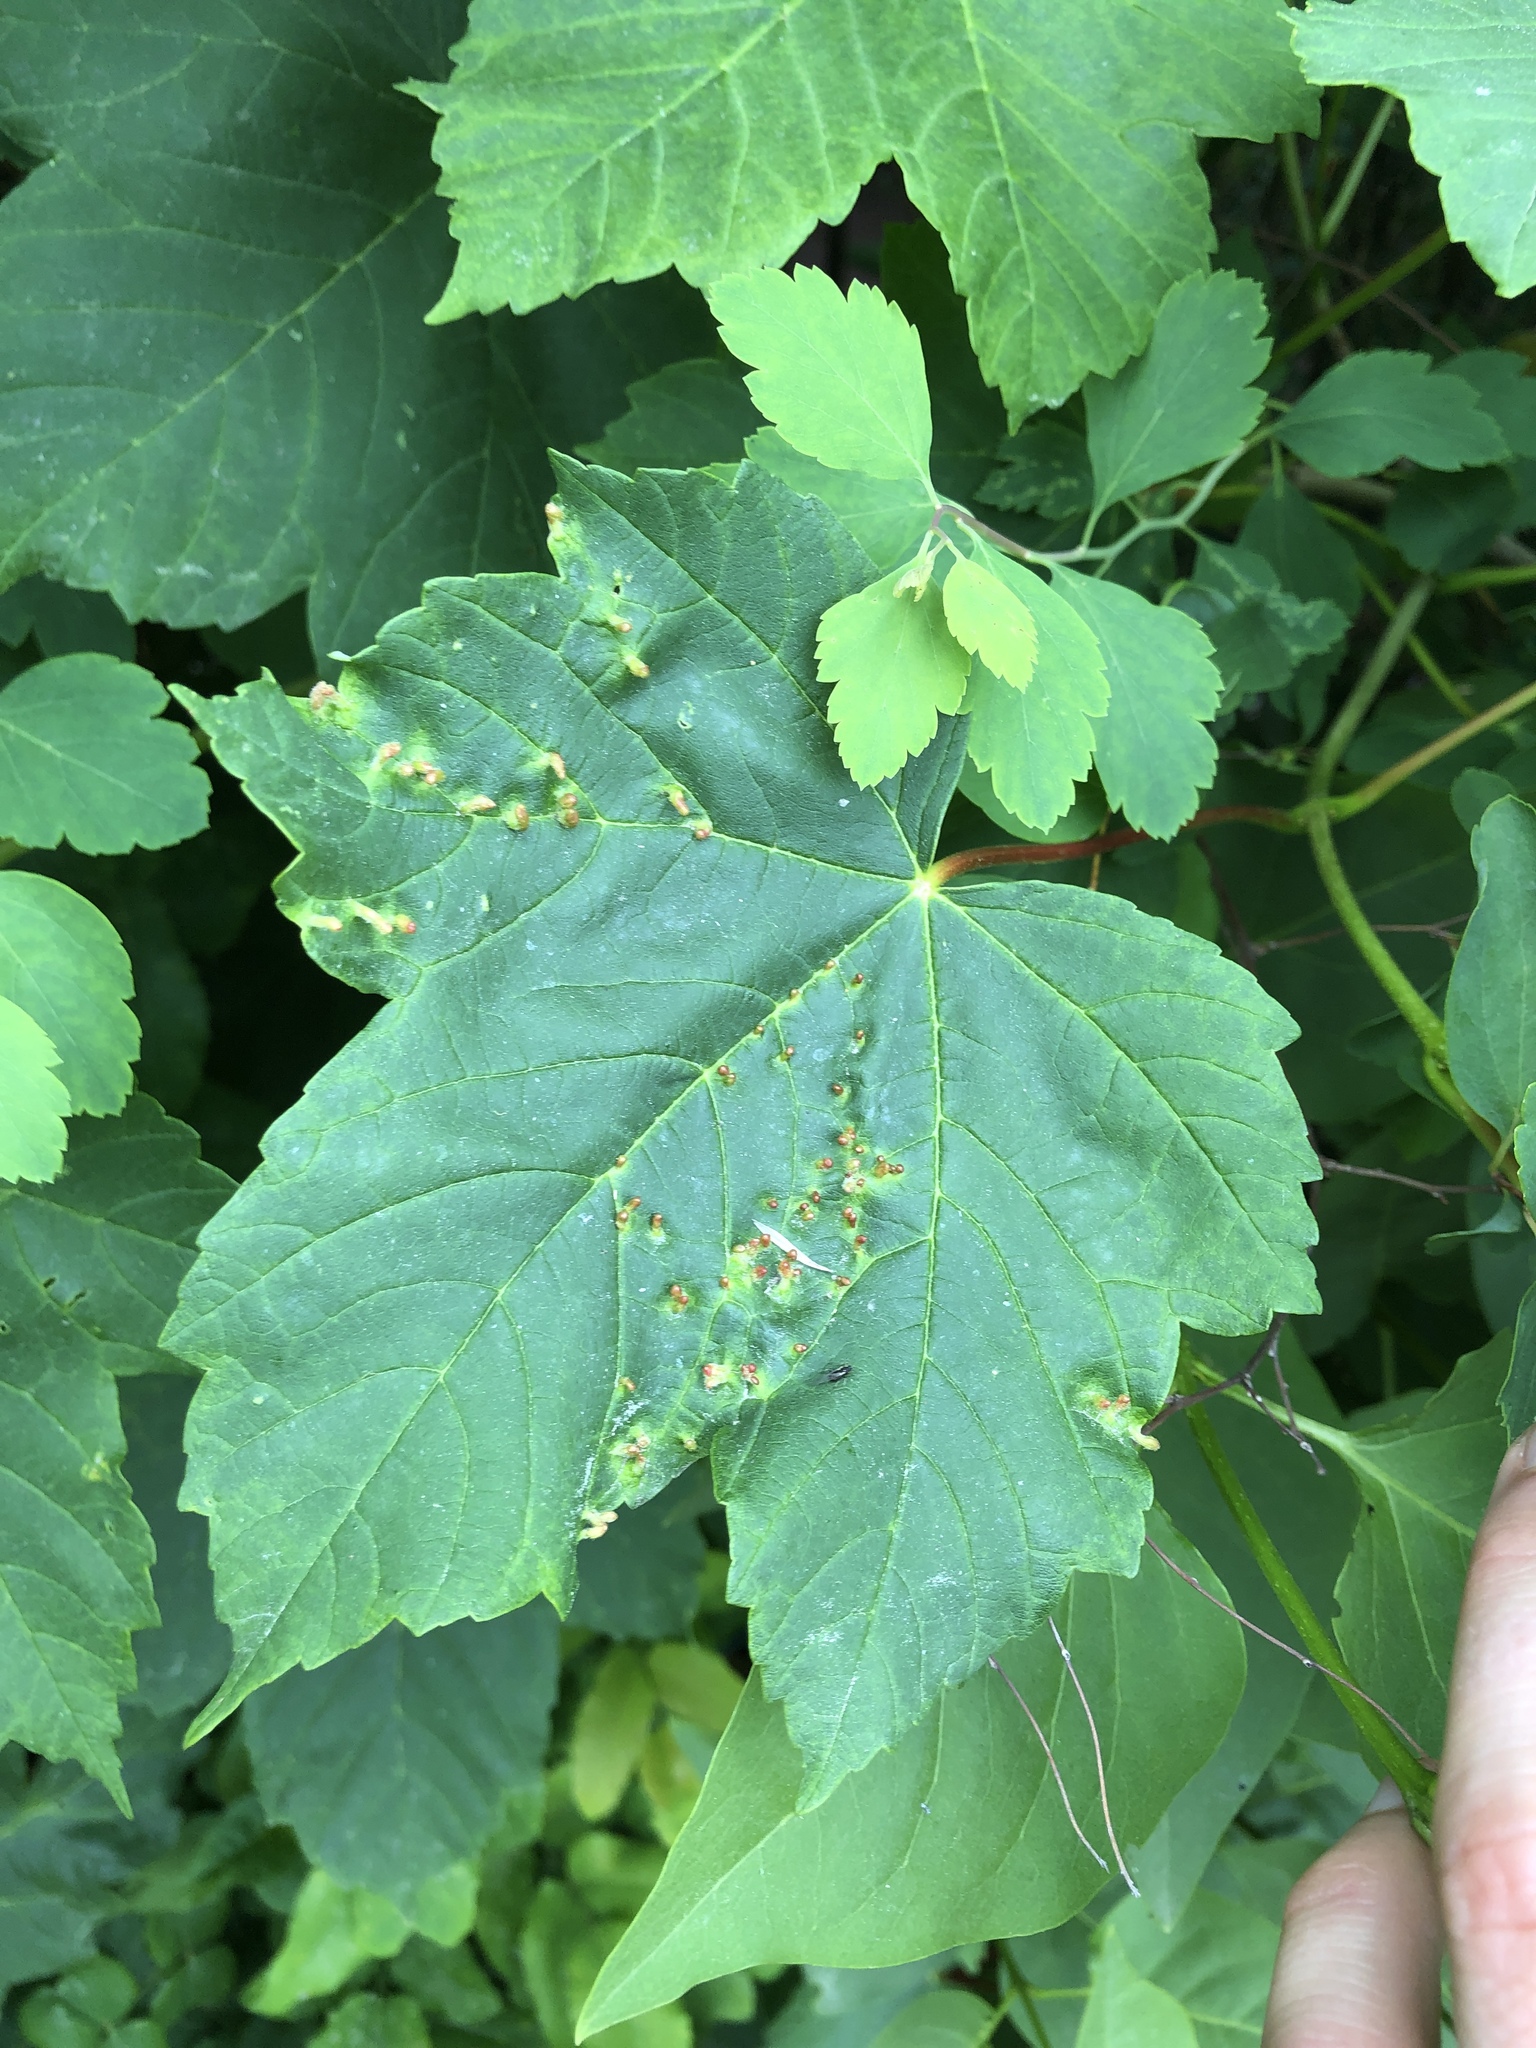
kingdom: Animalia
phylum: Arthropoda
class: Arachnida
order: Trombidiformes
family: Eriophyidae
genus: Aceria
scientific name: Aceria cephaloneus
